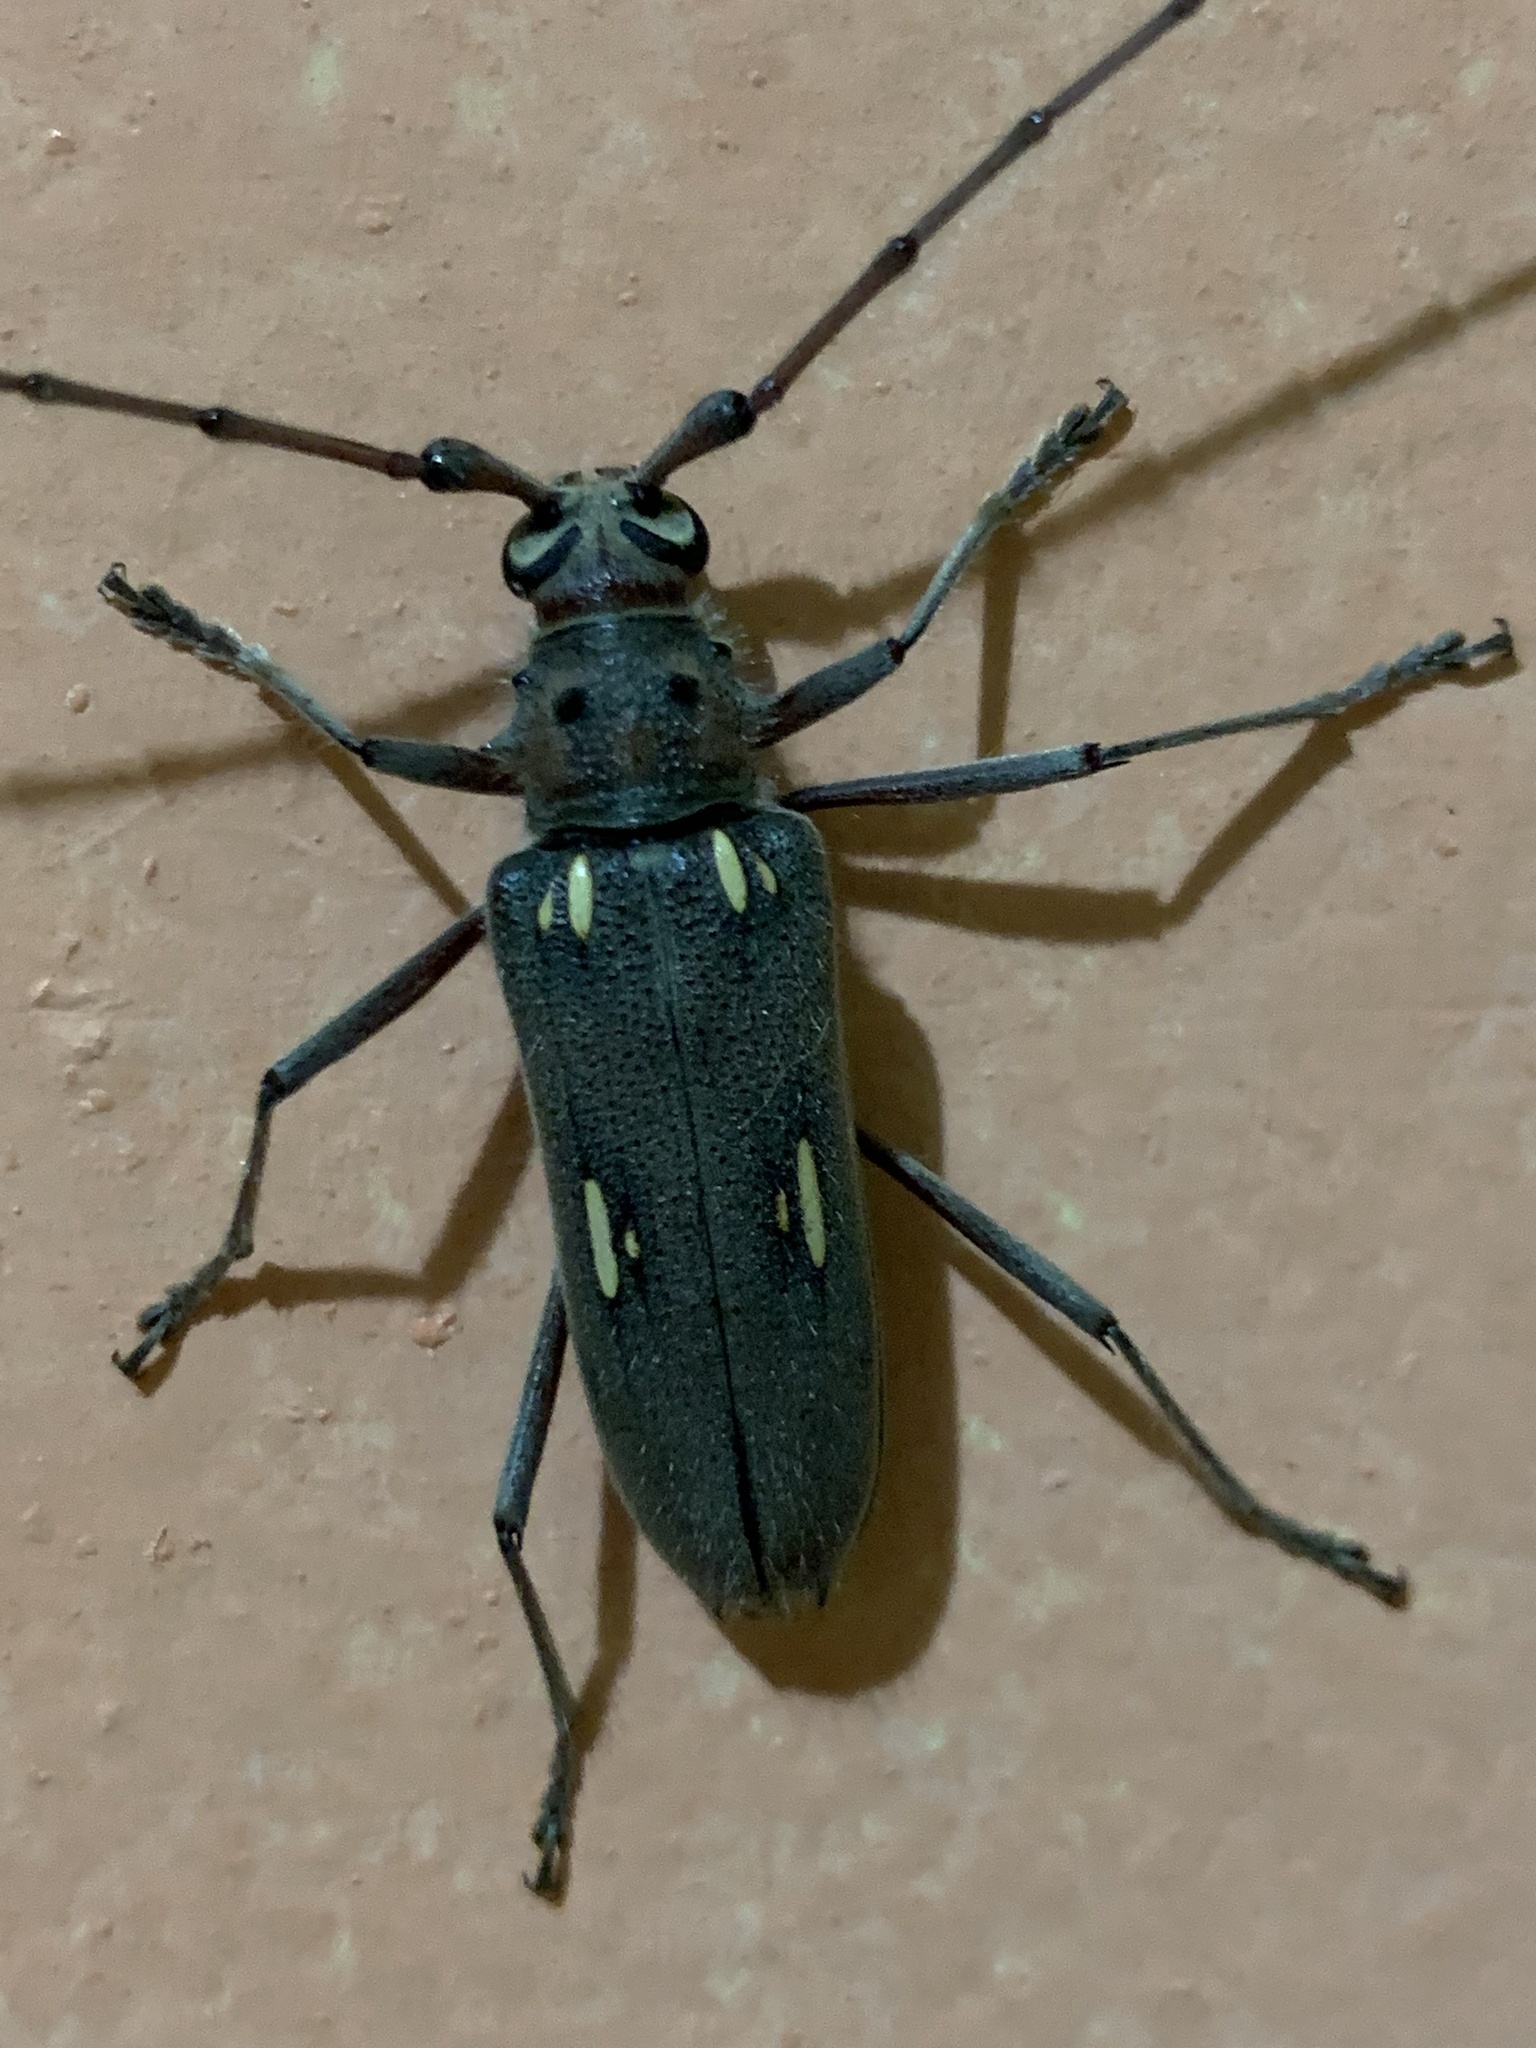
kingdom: Animalia
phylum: Arthropoda
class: Insecta
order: Coleoptera
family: Cerambycidae
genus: Eburia
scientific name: Eburia pilosa
